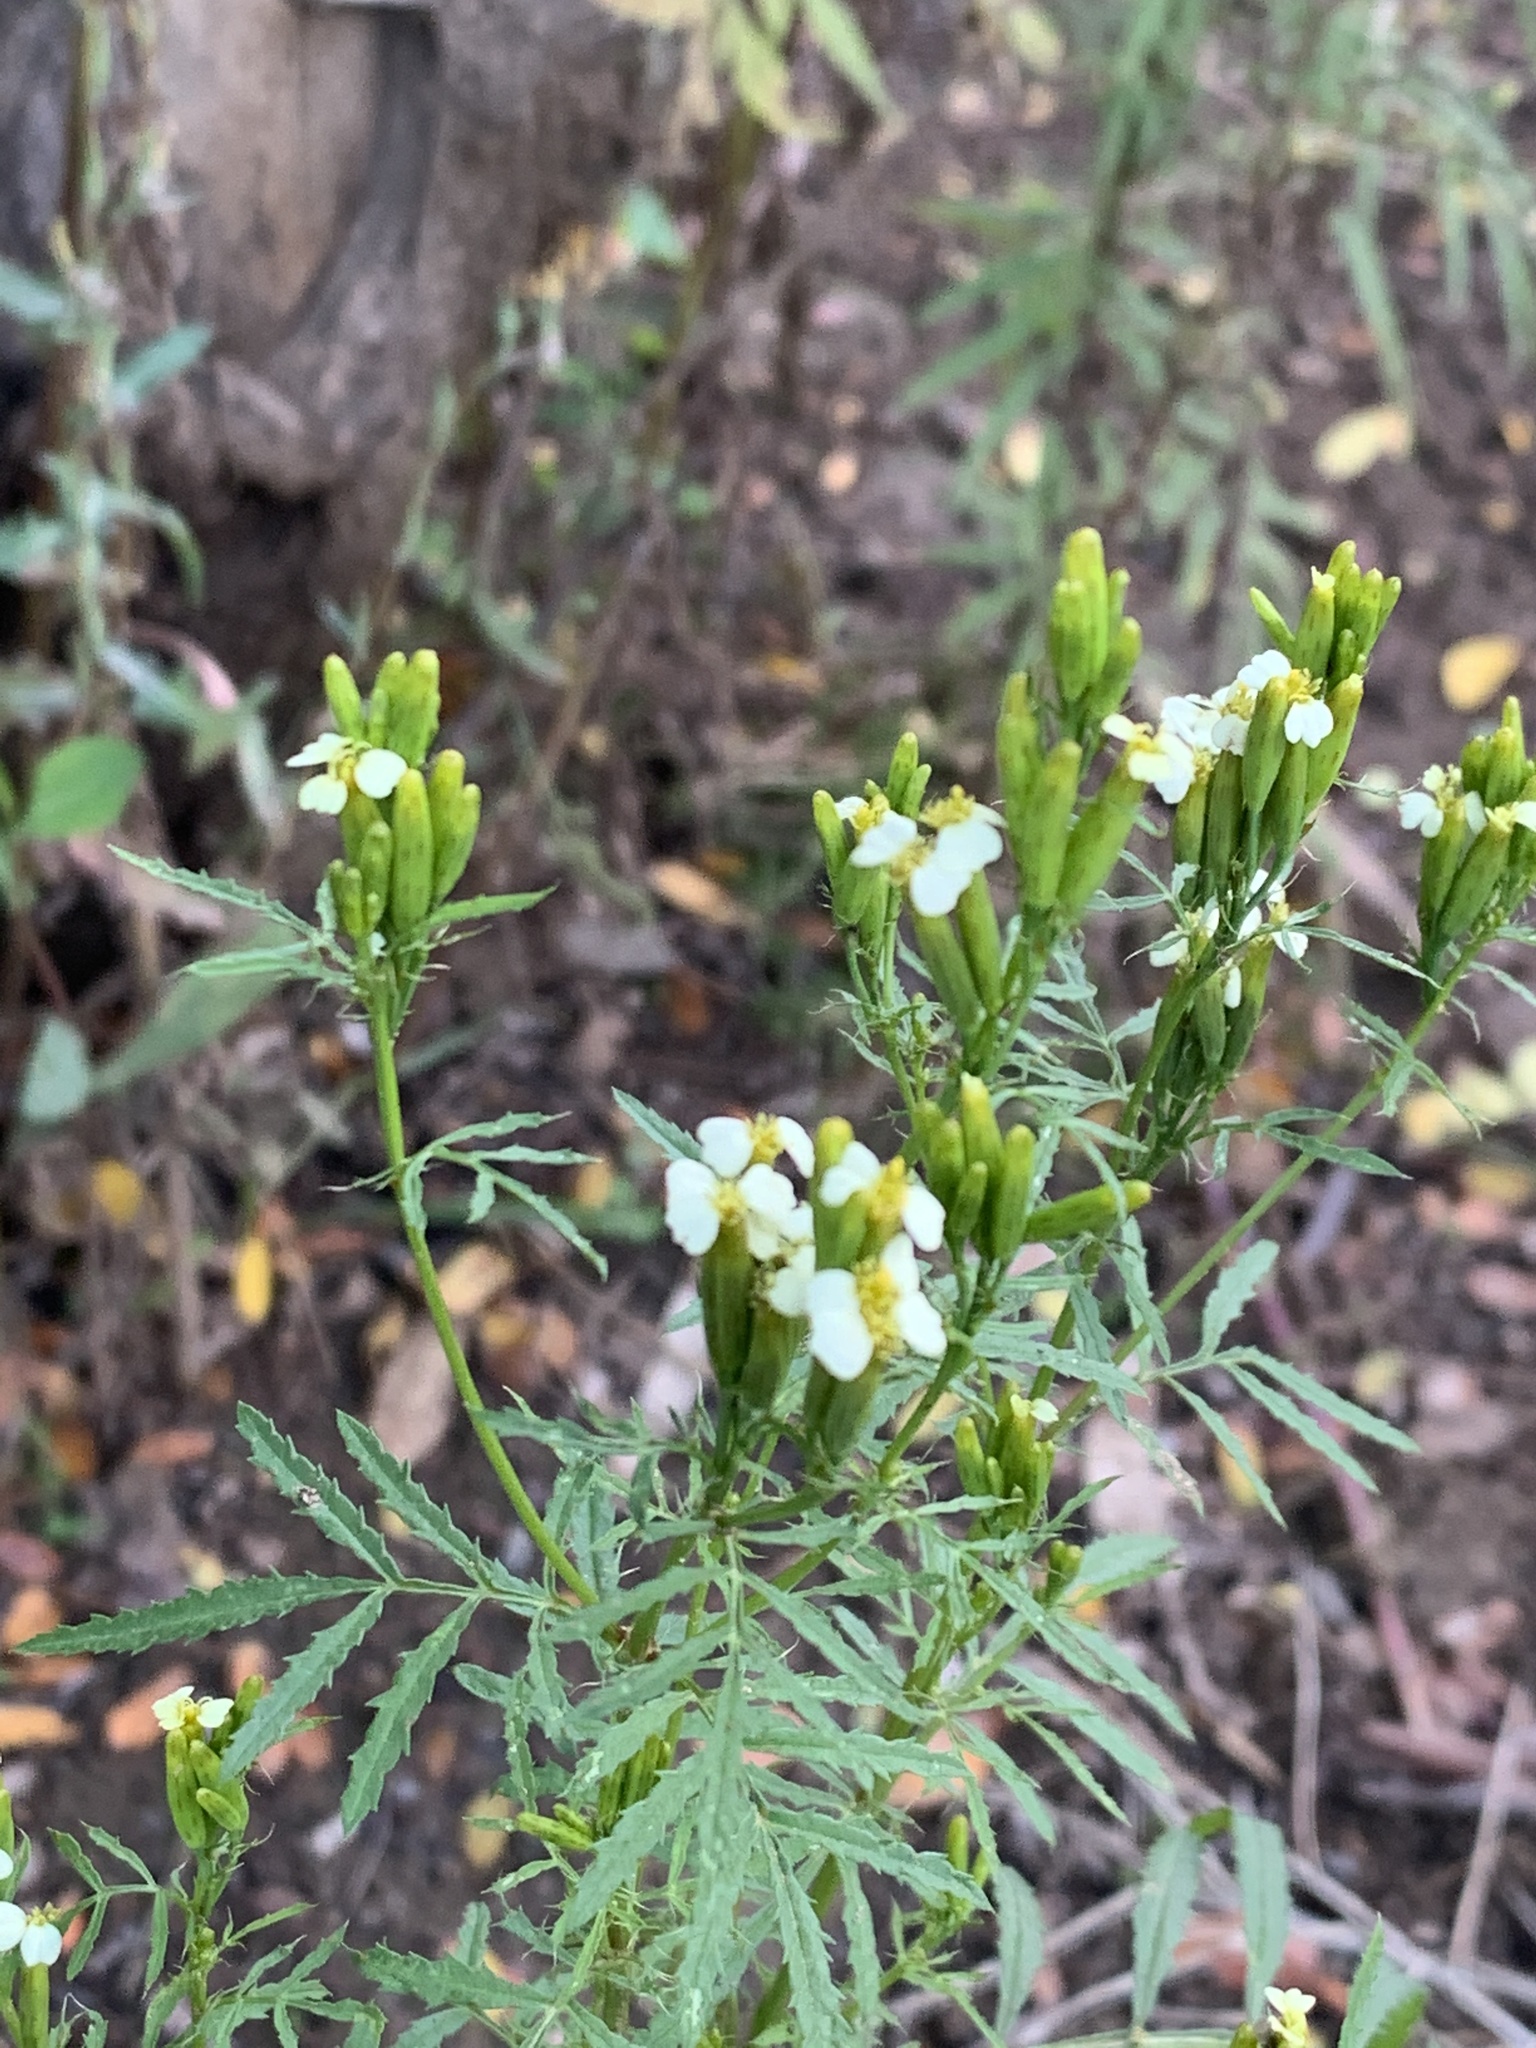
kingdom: Plantae
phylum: Tracheophyta
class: Magnoliopsida
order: Asterales
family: Asteraceae
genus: Tagetes
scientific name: Tagetes minuta
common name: Muster john henry
